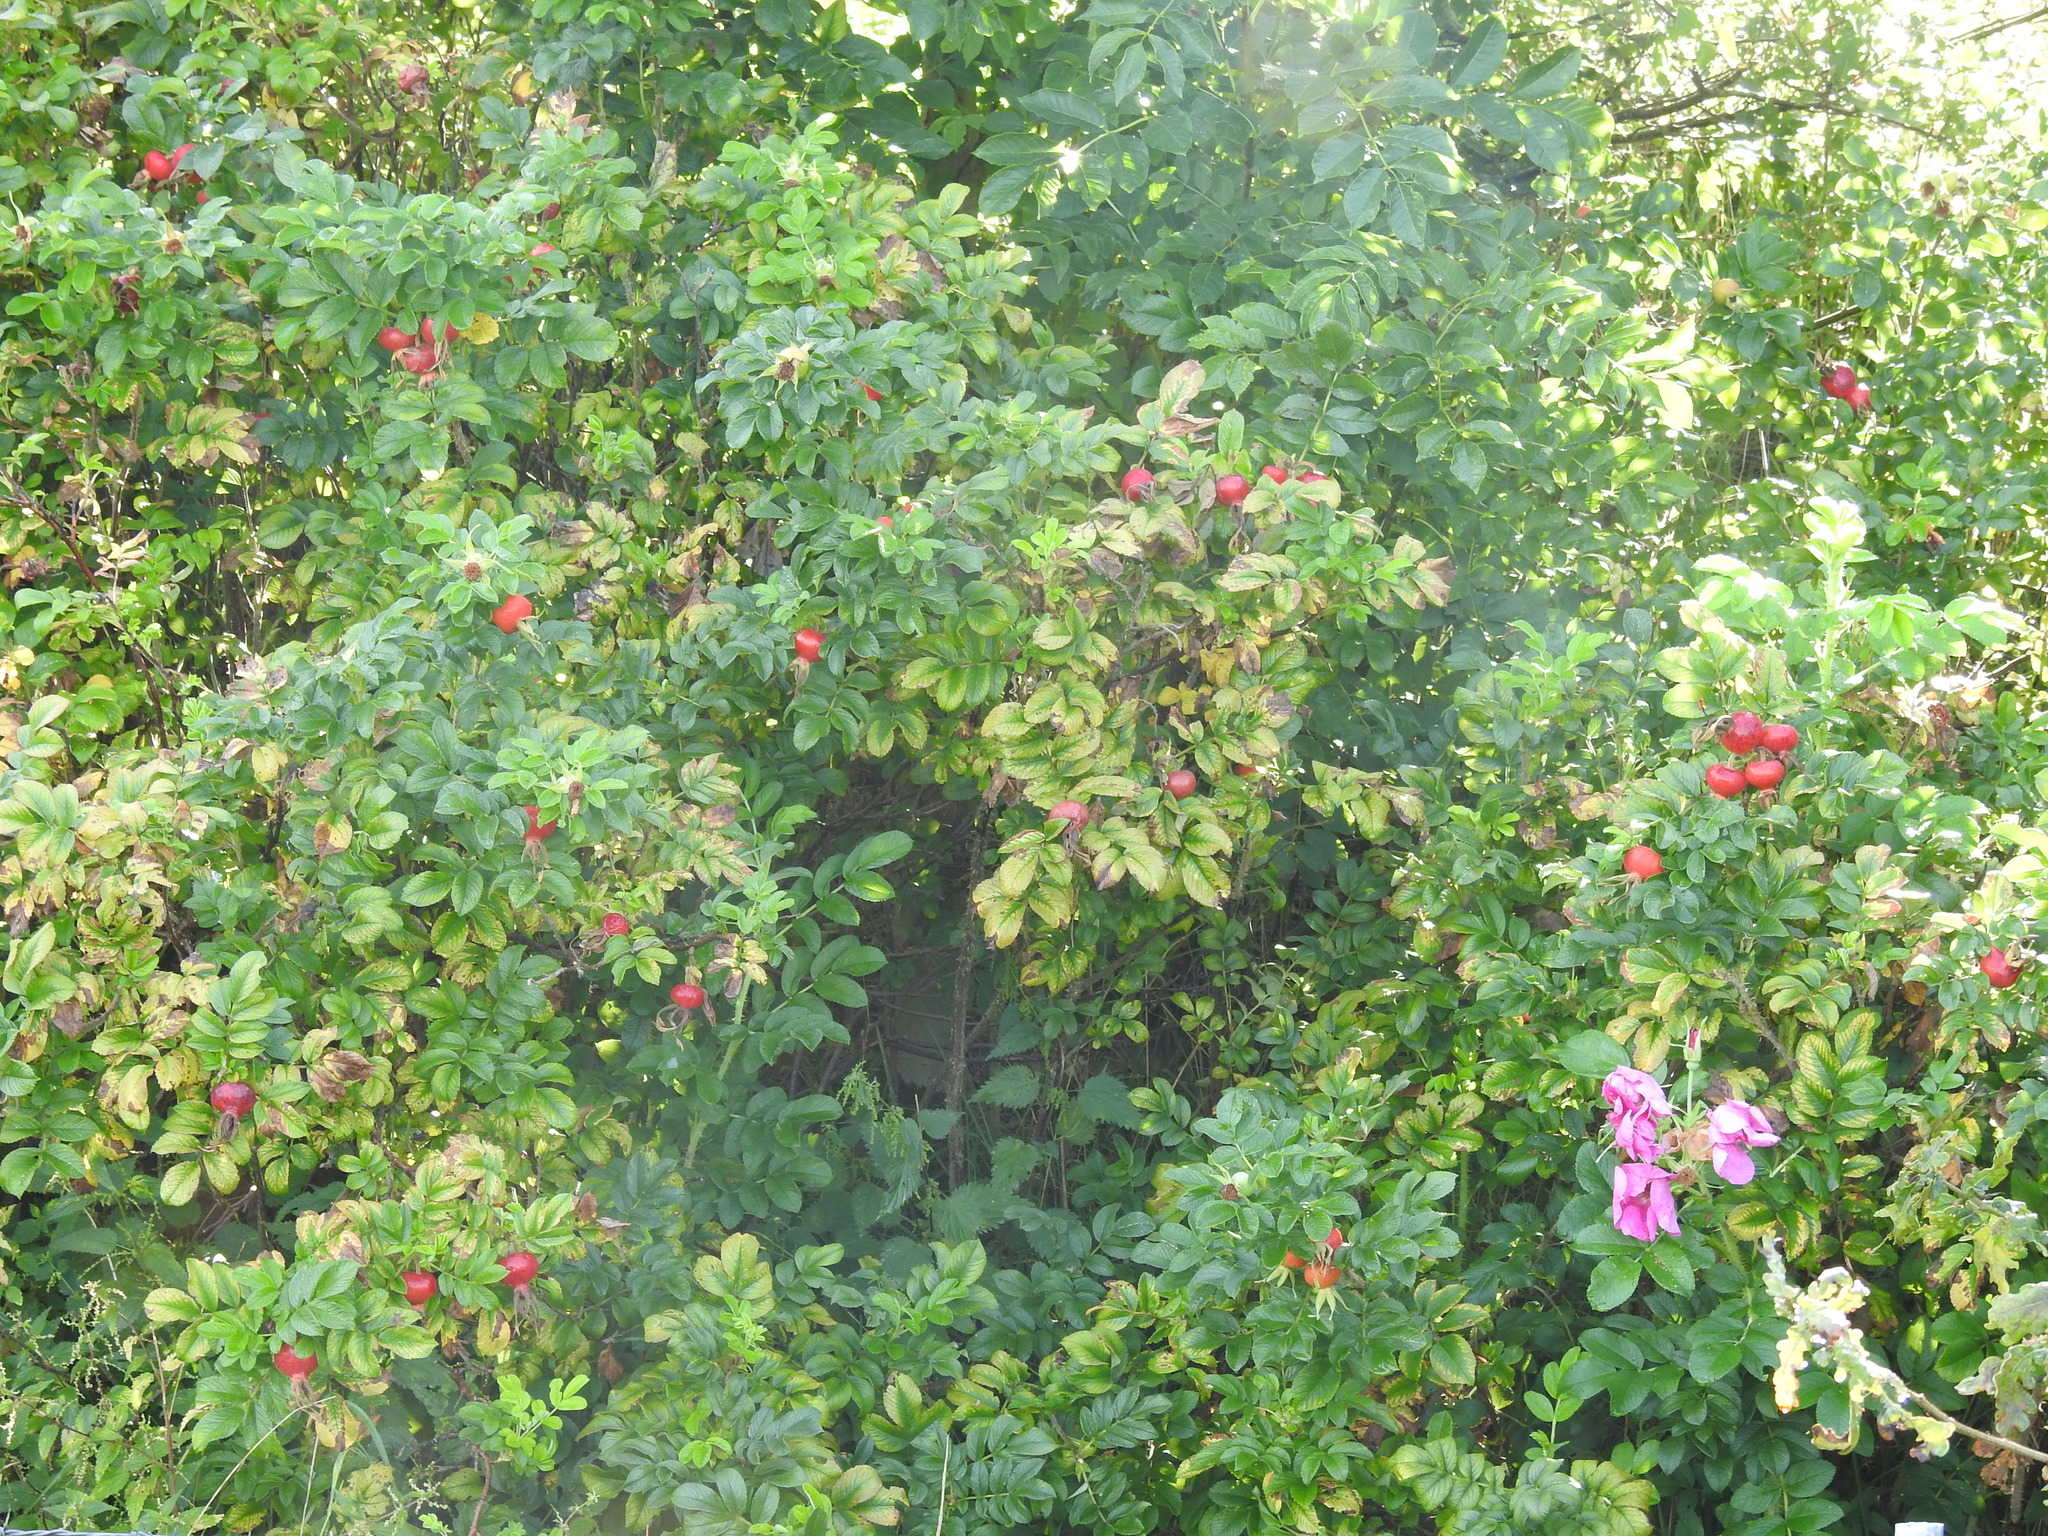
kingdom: Plantae
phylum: Tracheophyta
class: Magnoliopsida
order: Rosales
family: Rosaceae
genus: Rosa
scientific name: Rosa rugosa
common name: Japanese rose
